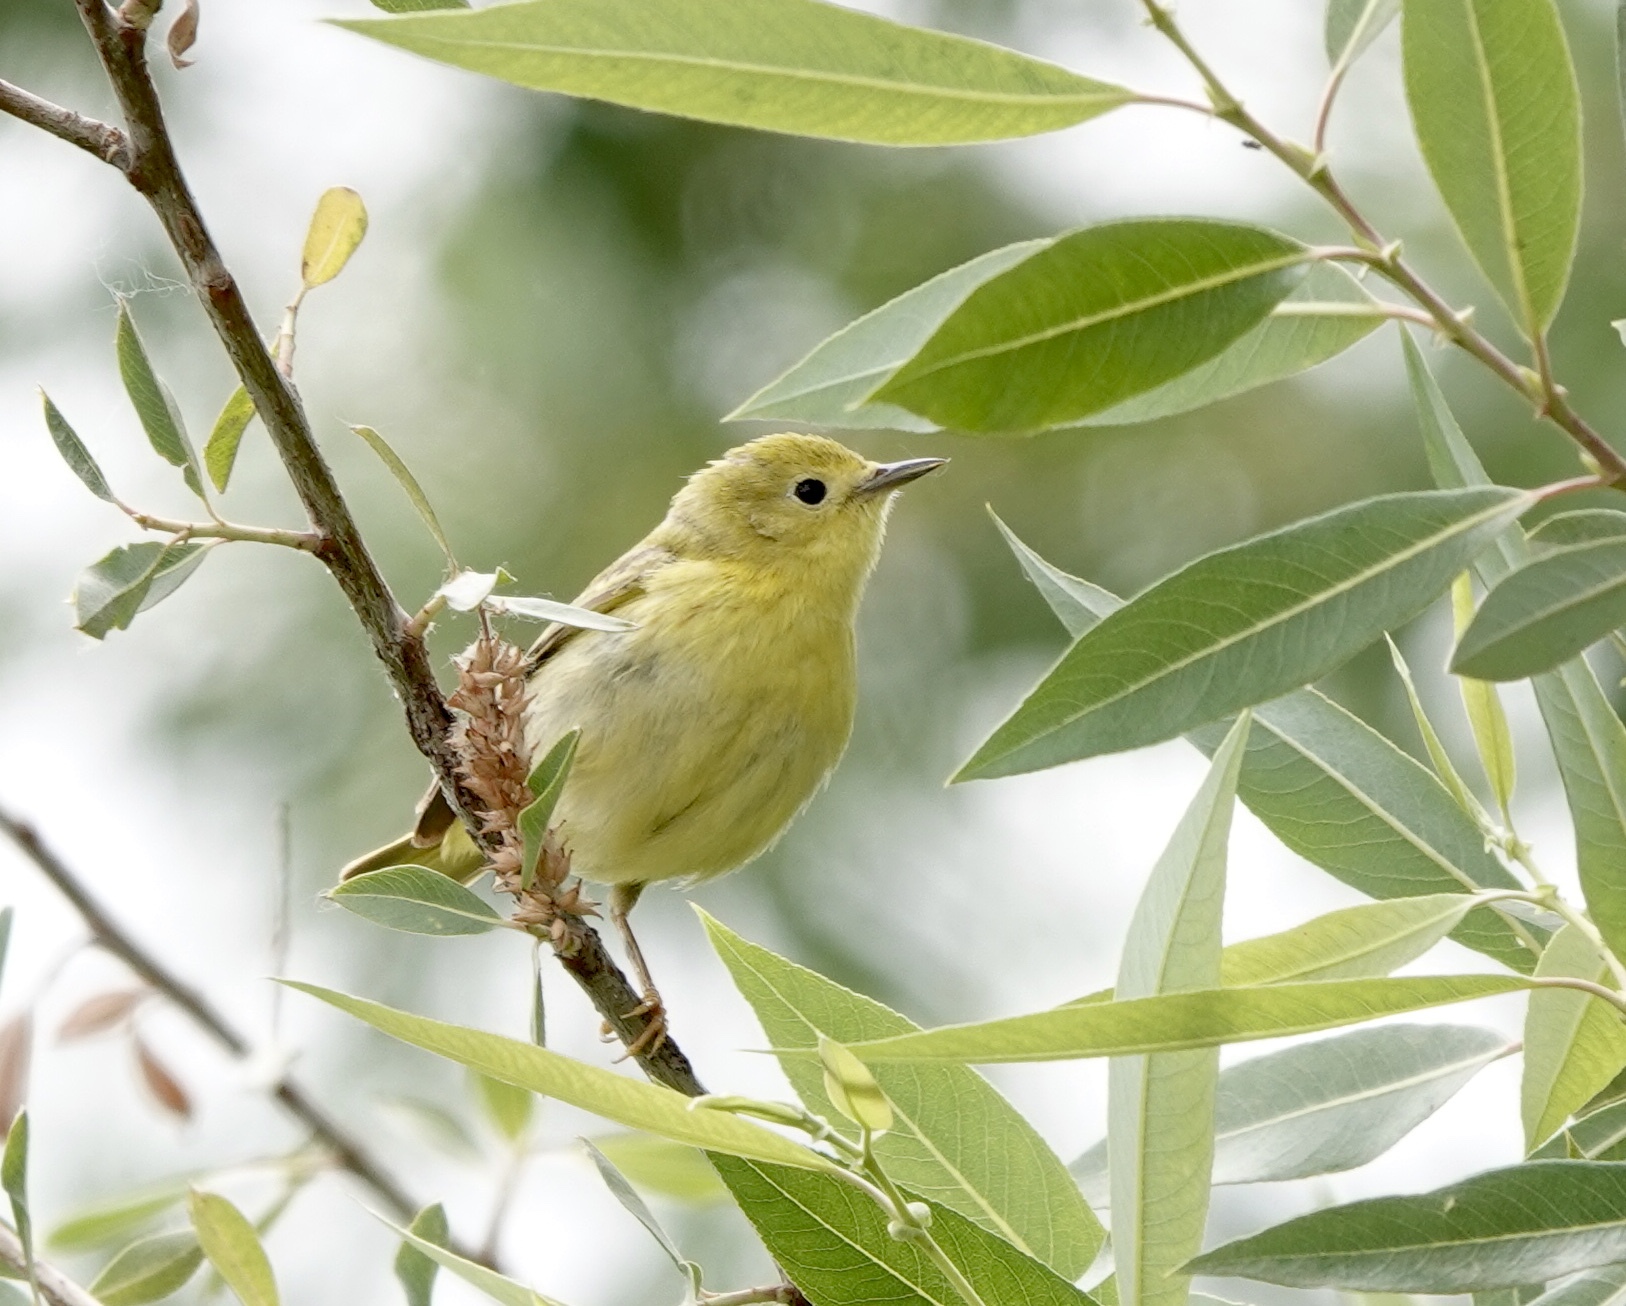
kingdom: Animalia
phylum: Chordata
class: Aves
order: Passeriformes
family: Parulidae
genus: Setophaga
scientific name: Setophaga petechia
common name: Yellow warbler
